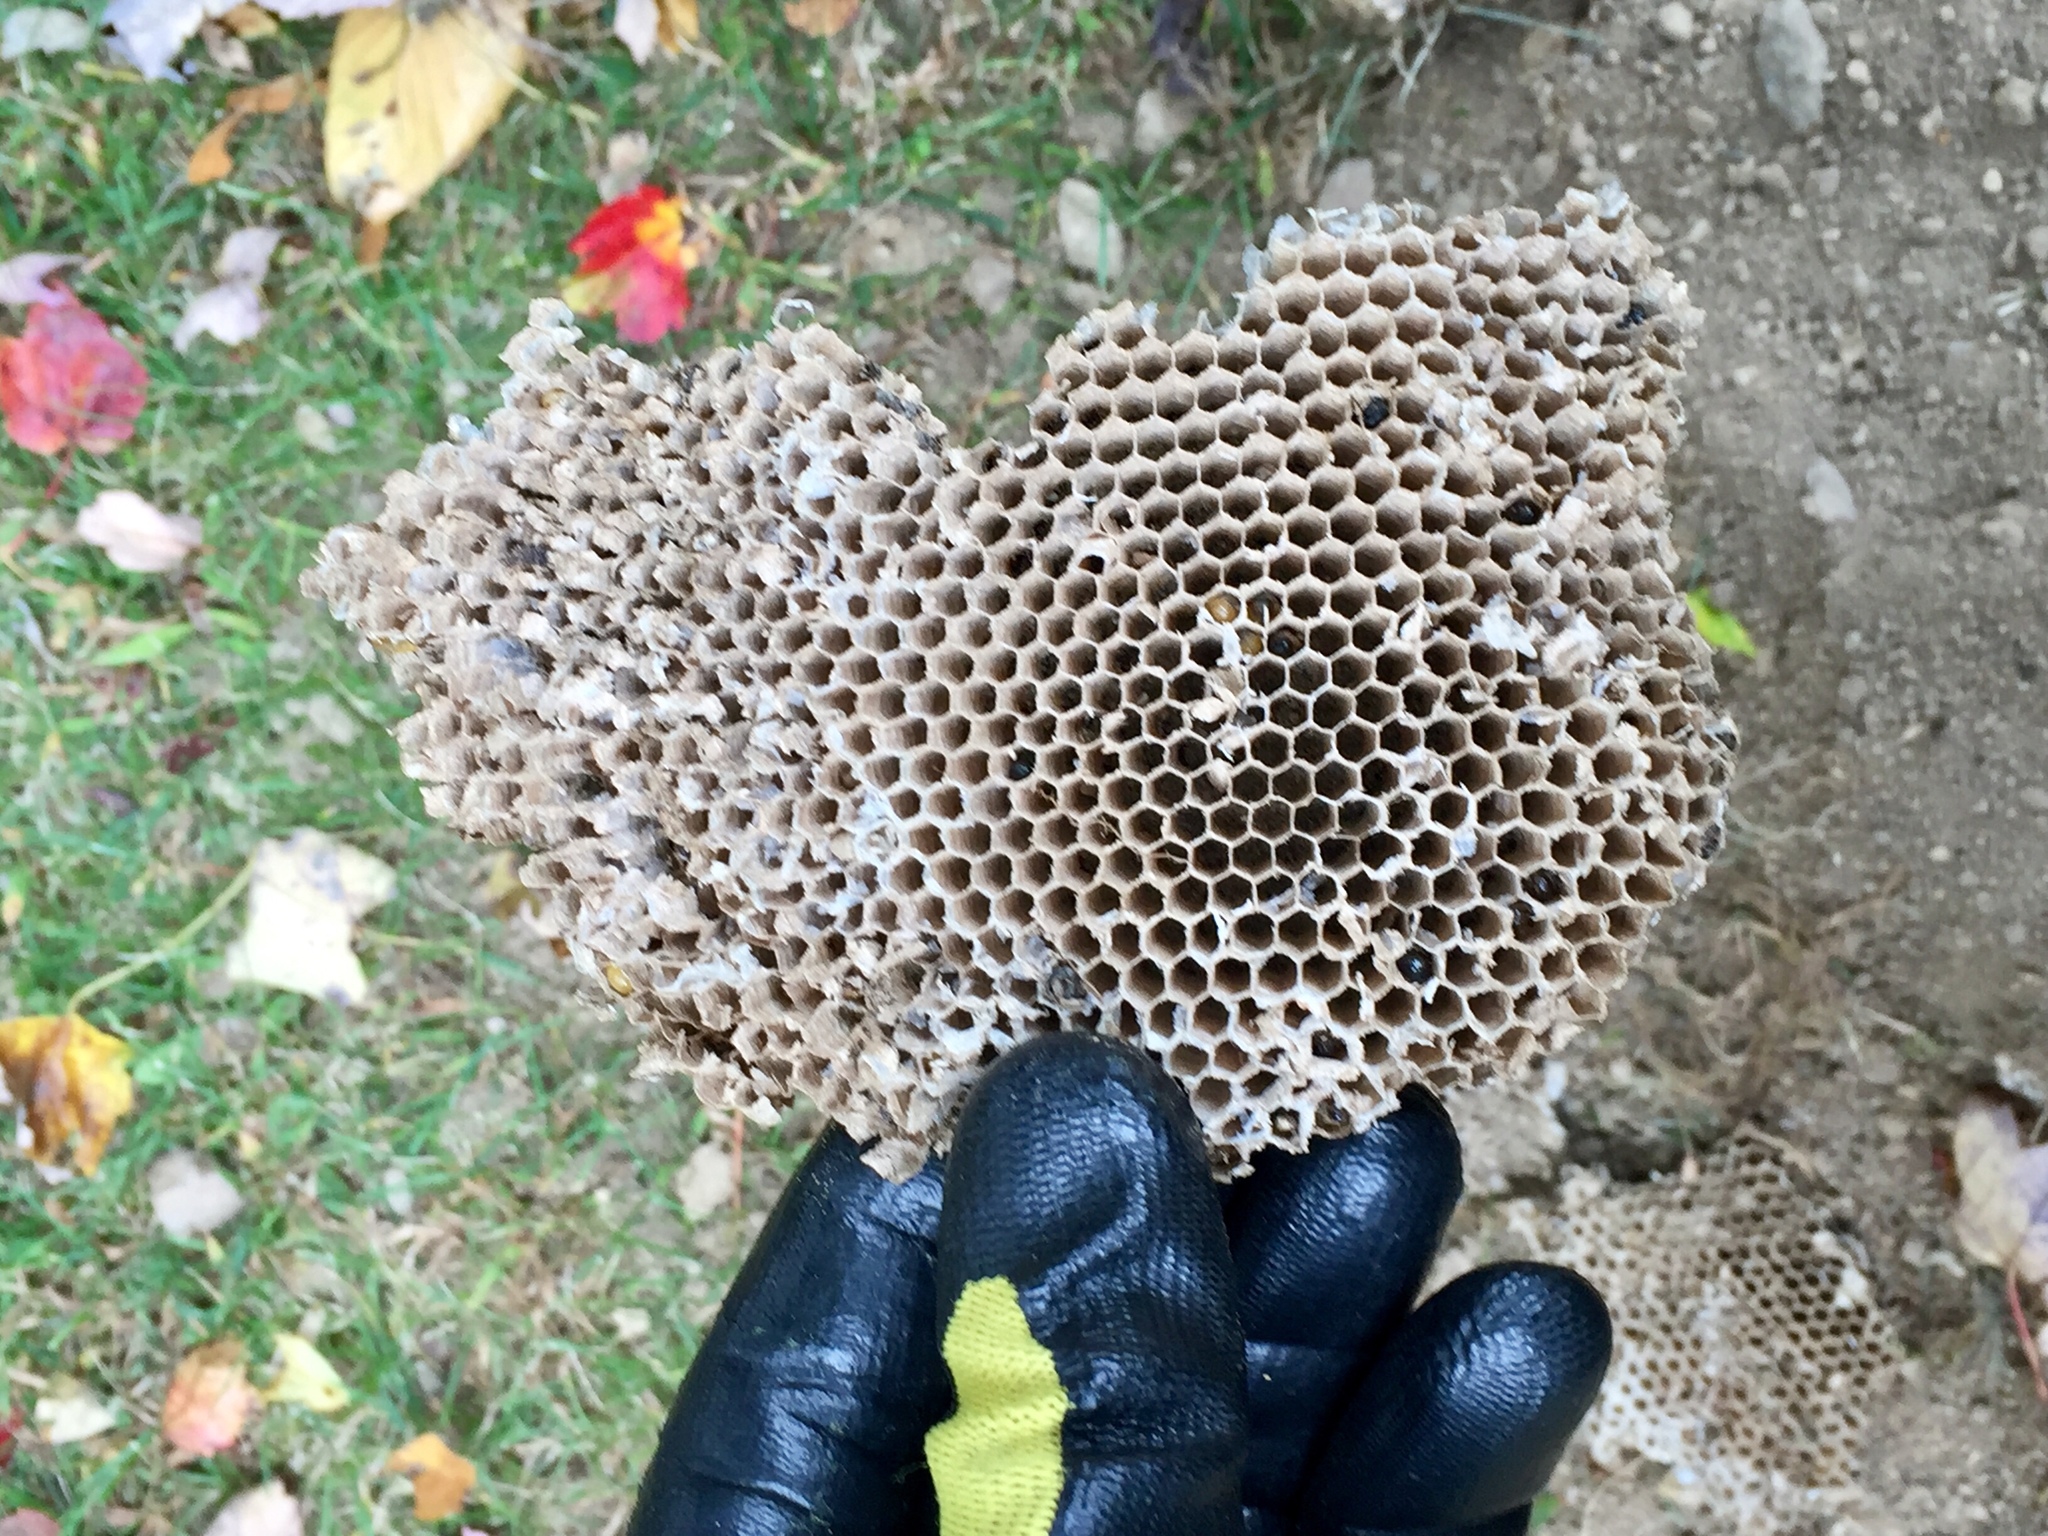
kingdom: Animalia
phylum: Arthropoda
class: Insecta
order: Hymenoptera
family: Vespidae
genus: Vespula
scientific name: Vespula
